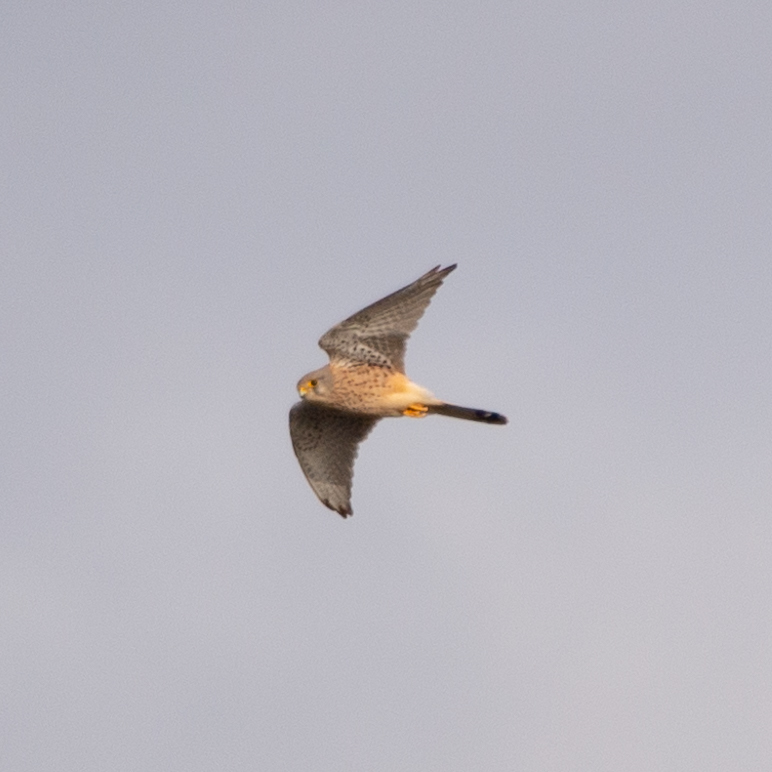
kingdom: Animalia
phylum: Chordata
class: Aves
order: Falconiformes
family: Falconidae
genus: Falco
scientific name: Falco tinnunculus
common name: Common kestrel
